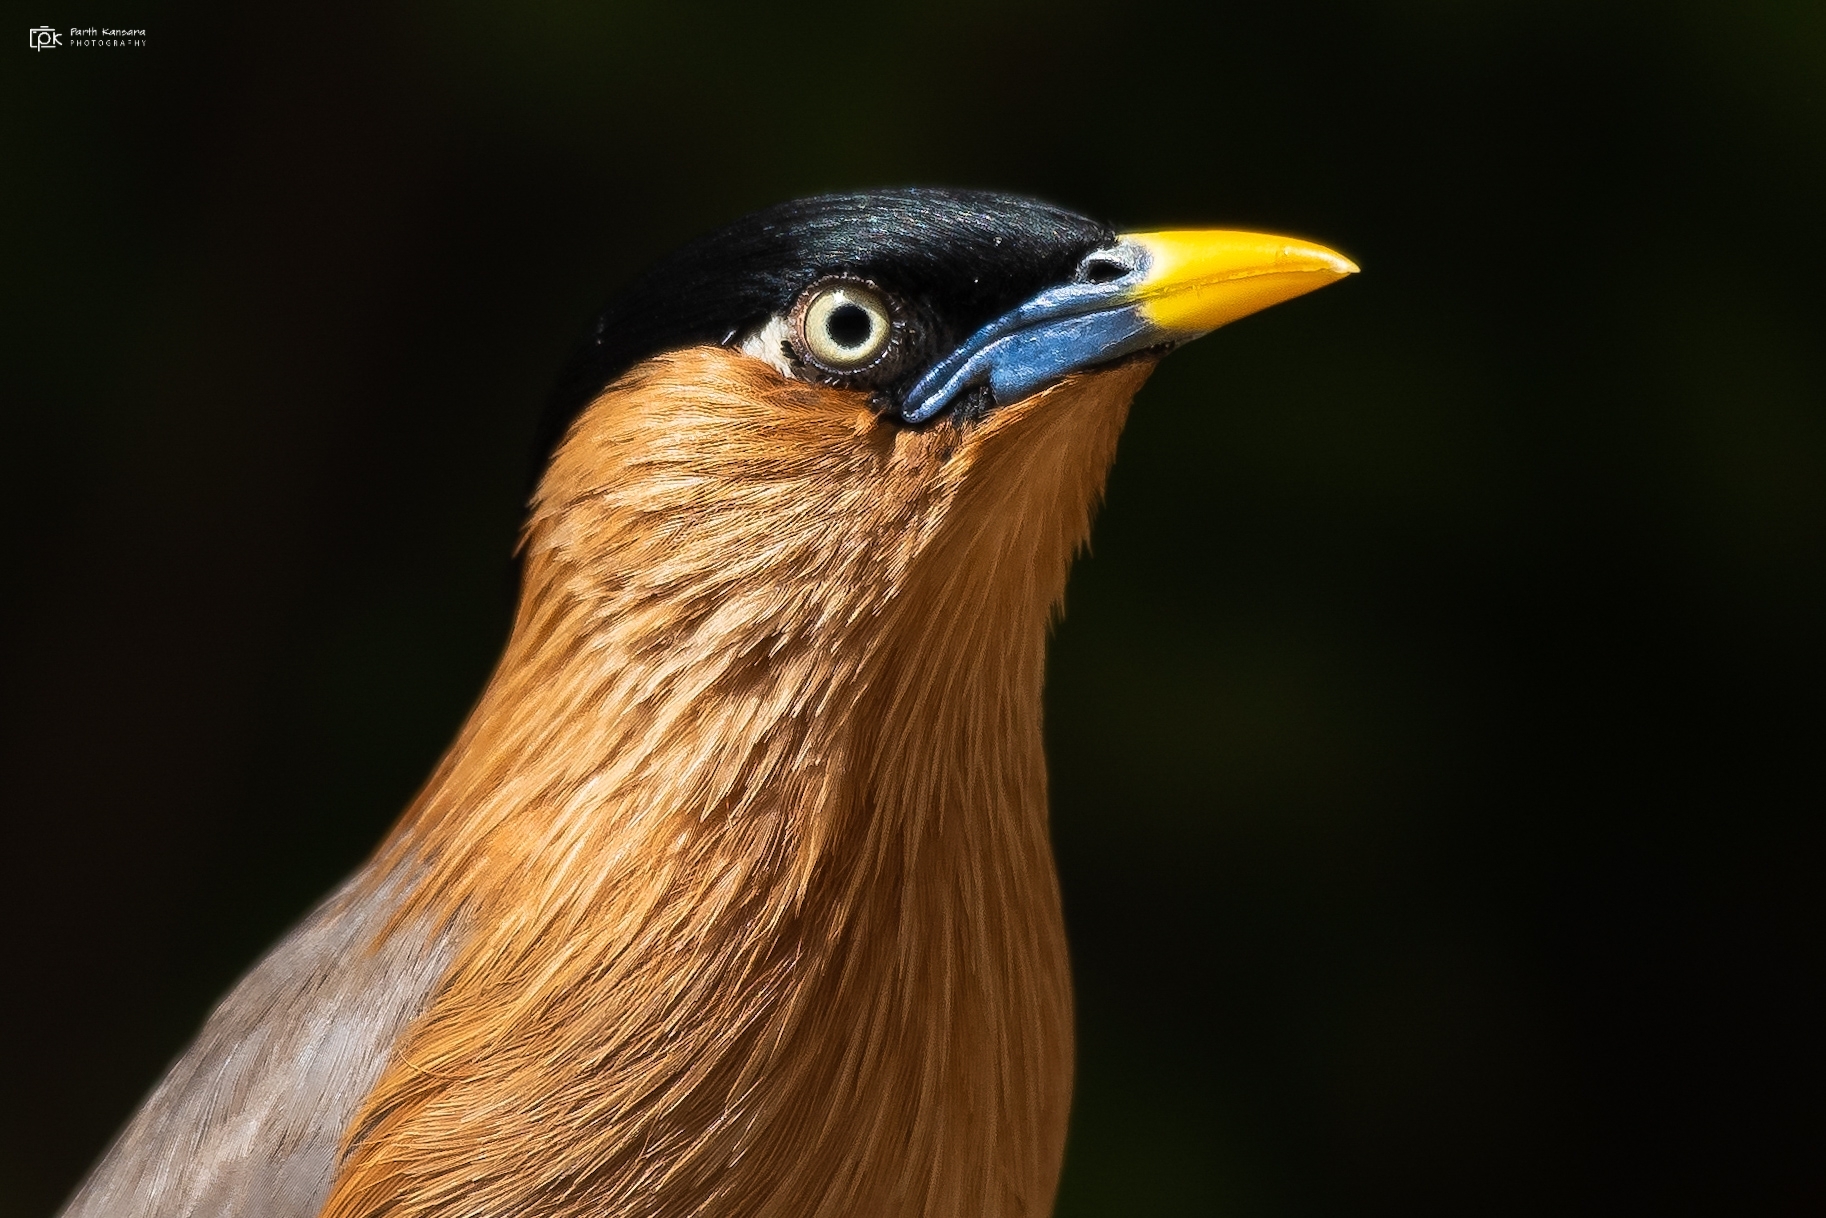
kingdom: Animalia
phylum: Chordata
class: Aves
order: Passeriformes
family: Sturnidae
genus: Sturnia
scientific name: Sturnia pagodarum
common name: Brahminy starling
